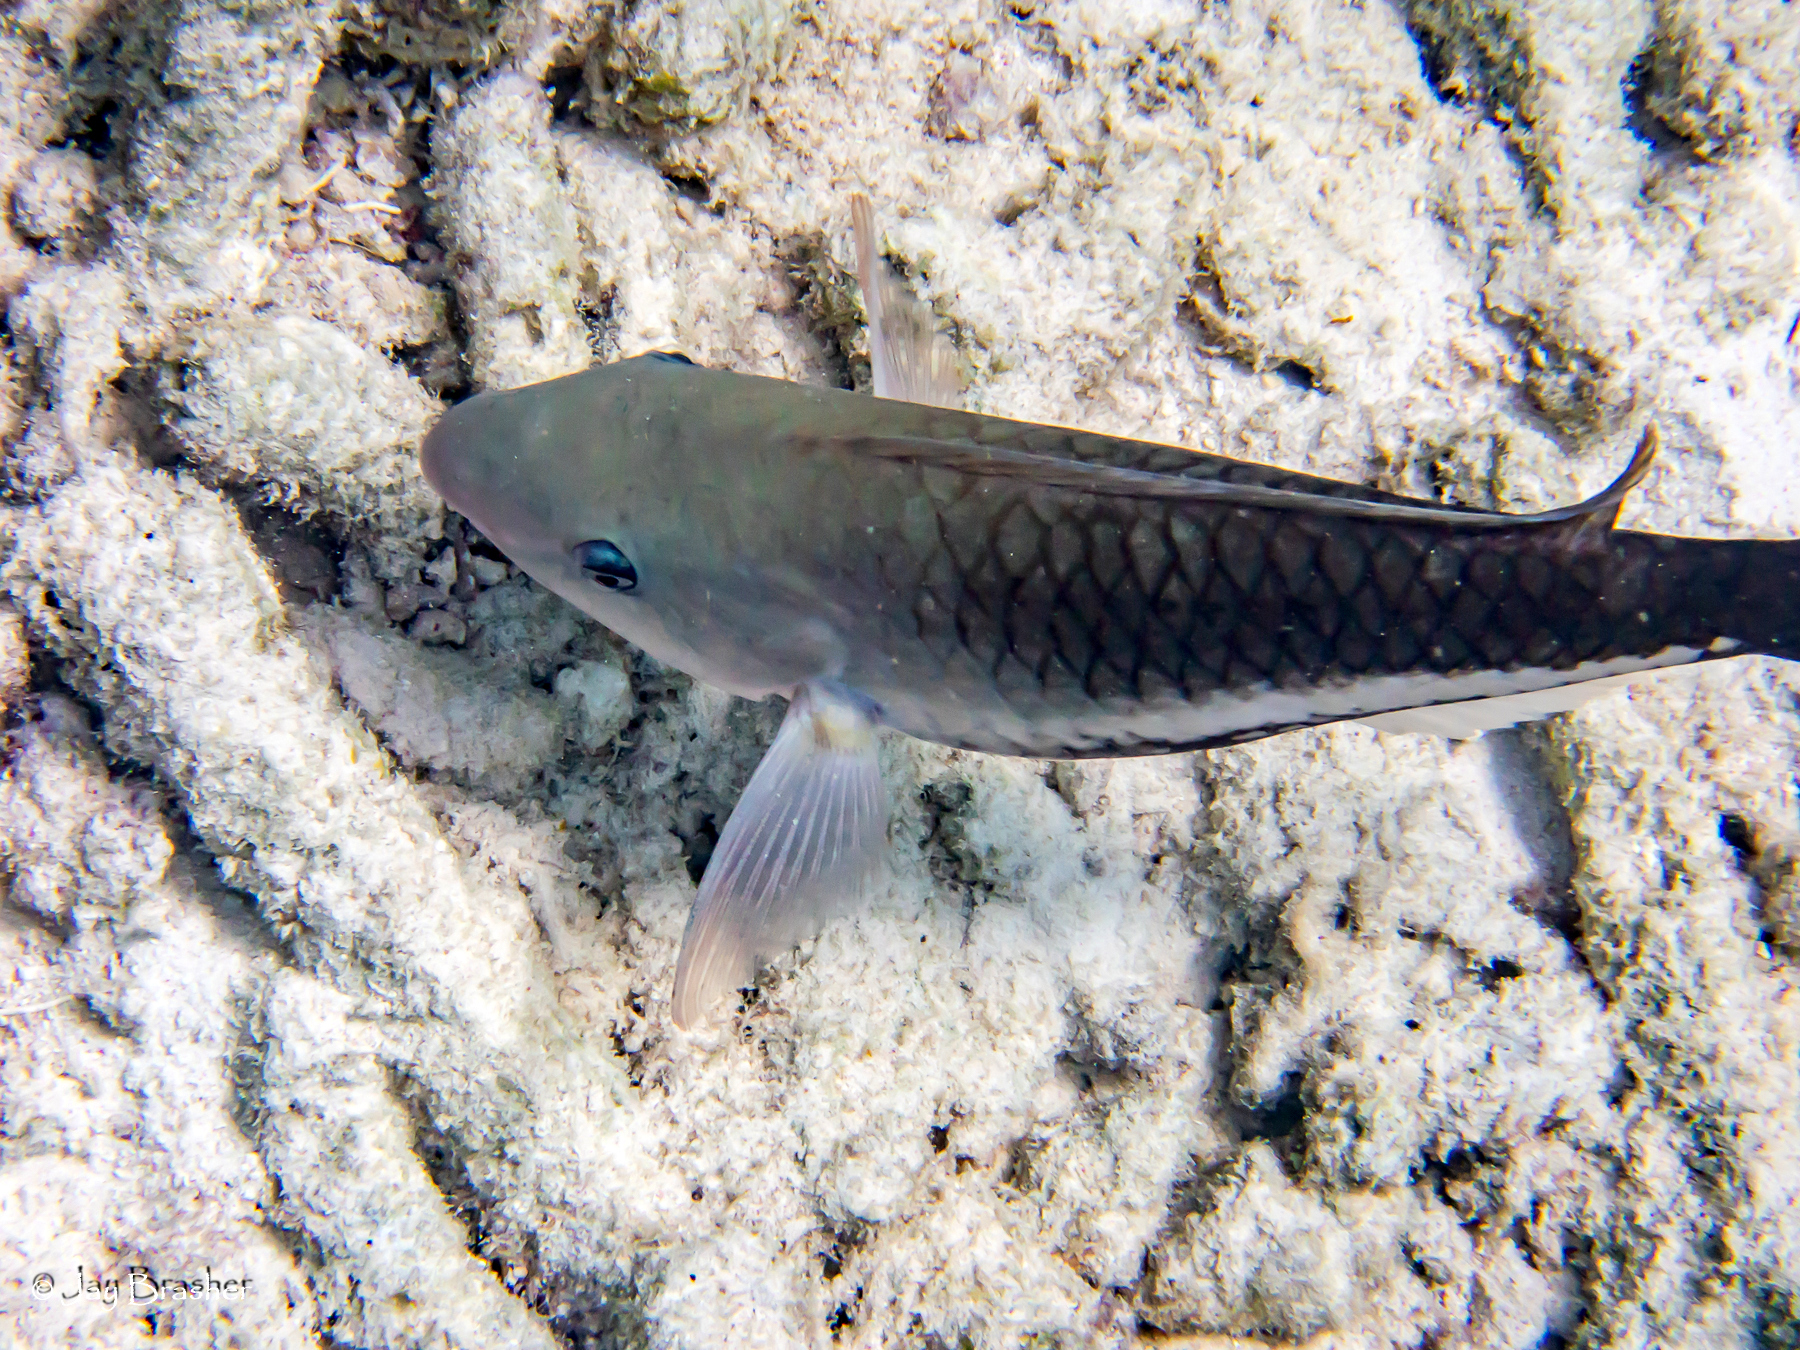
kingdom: Animalia
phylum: Chordata
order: Perciformes
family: Scaridae
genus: Scarus
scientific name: Scarus vetula
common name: Queen parrotfish
